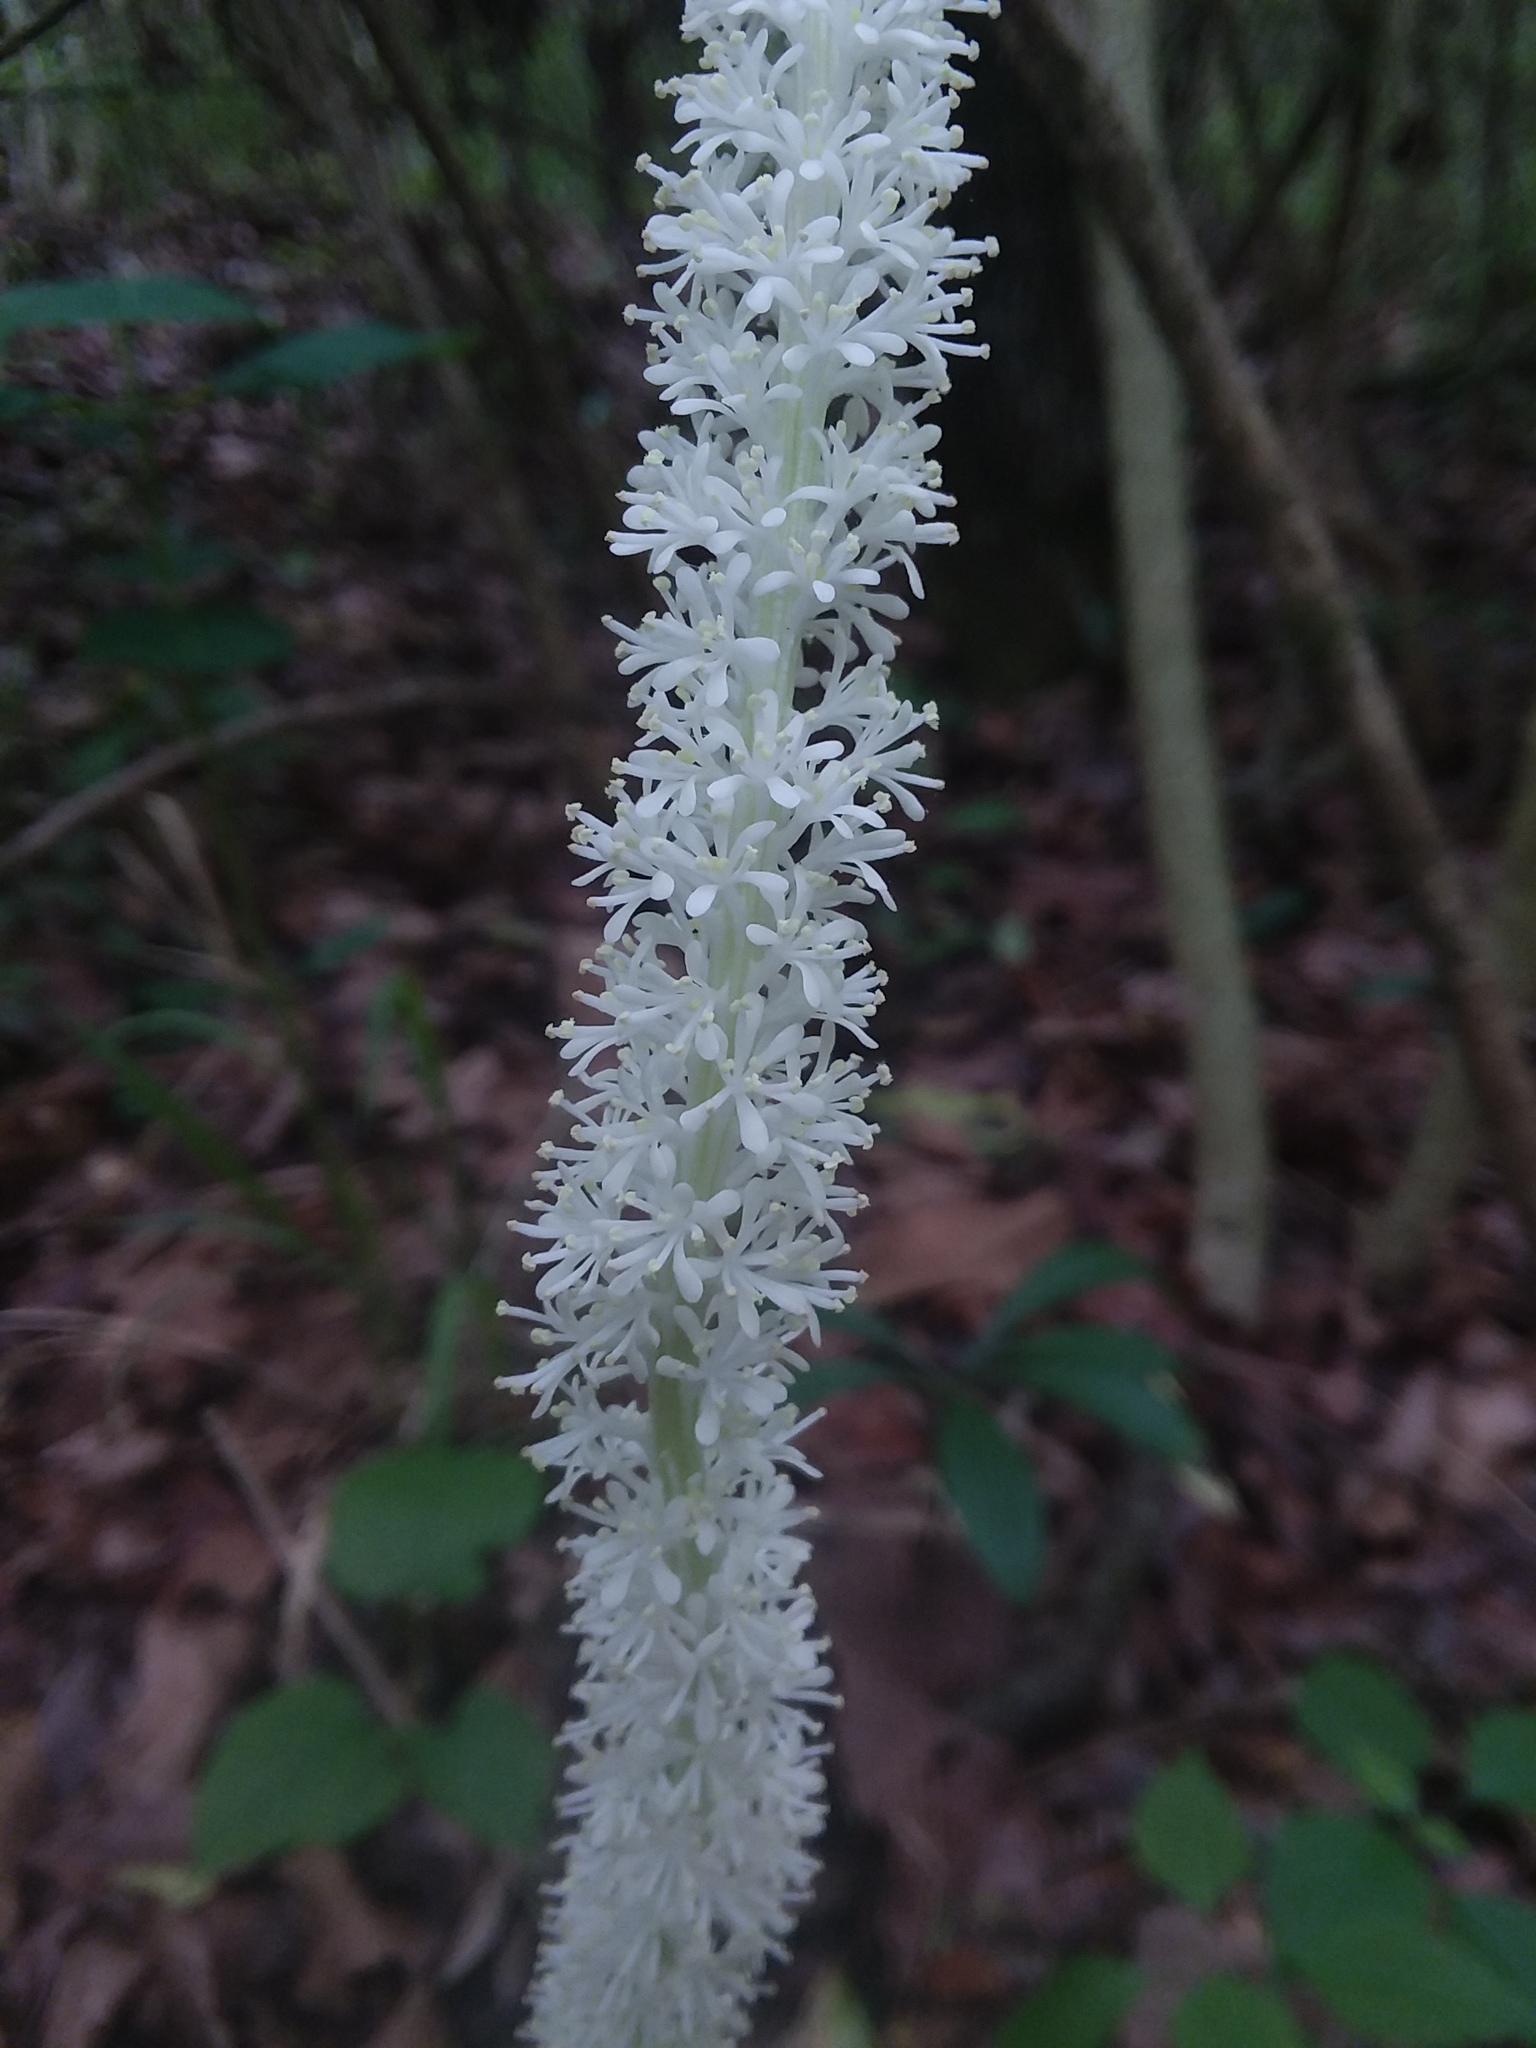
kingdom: Plantae
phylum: Tracheophyta
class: Liliopsida
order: Liliales
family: Melanthiaceae
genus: Chamaelirium
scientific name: Chamaelirium luteum
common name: Fairy-wand
